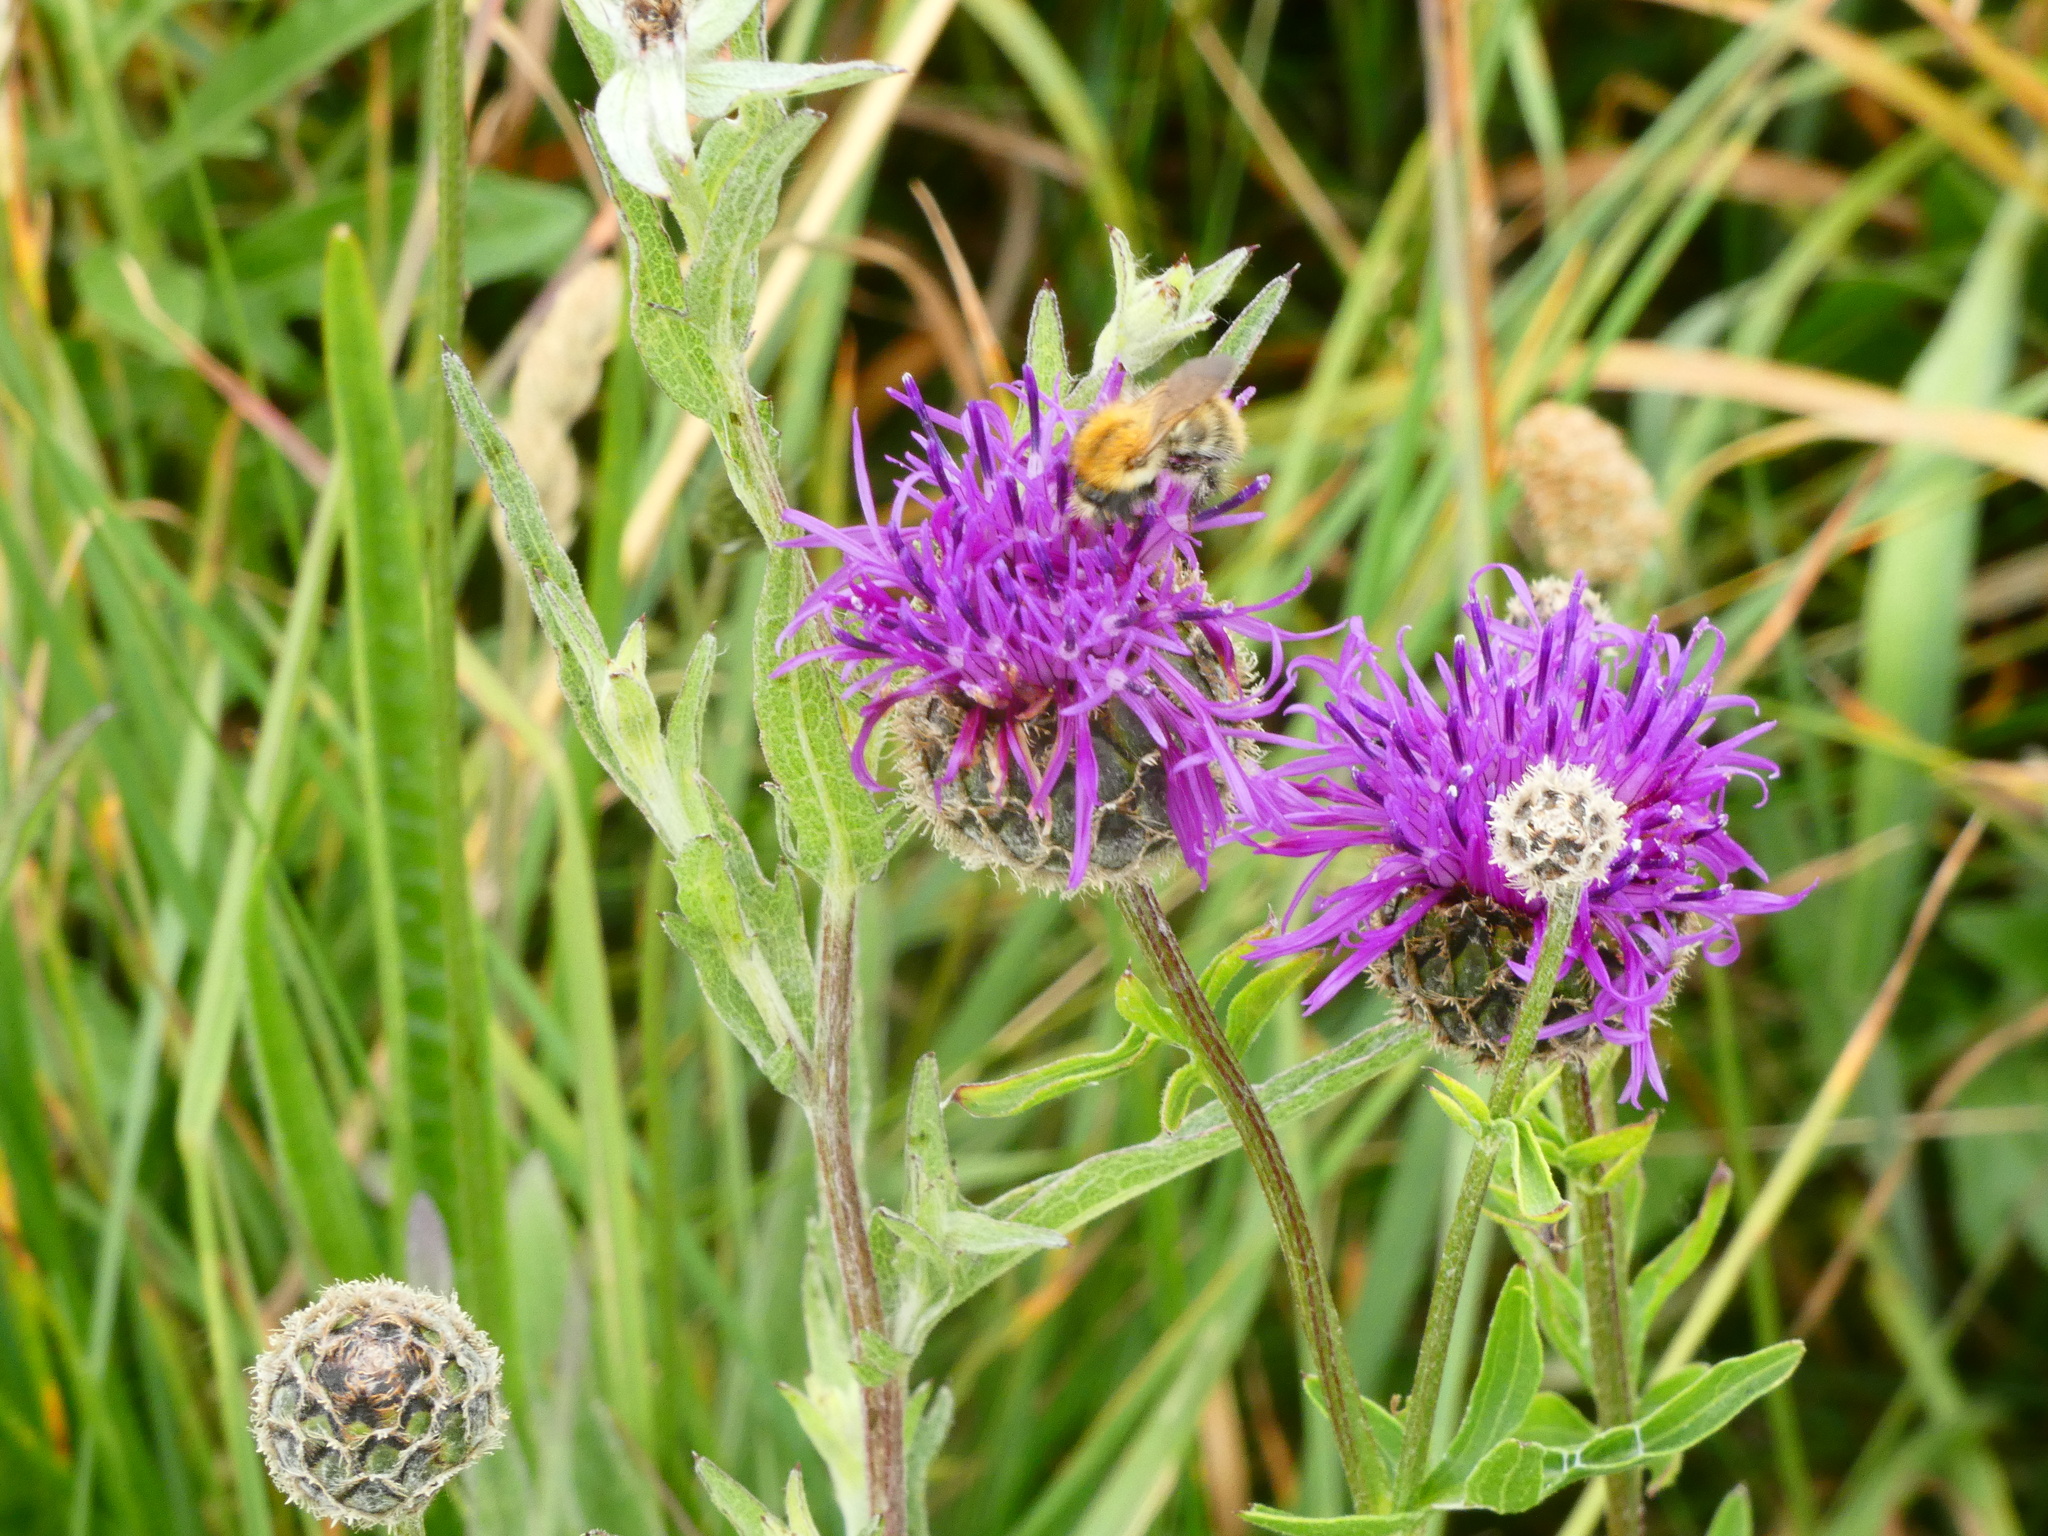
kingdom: Animalia
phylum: Arthropoda
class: Insecta
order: Hymenoptera
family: Apidae
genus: Bombus
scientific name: Bombus pascuorum
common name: Common carder bee
